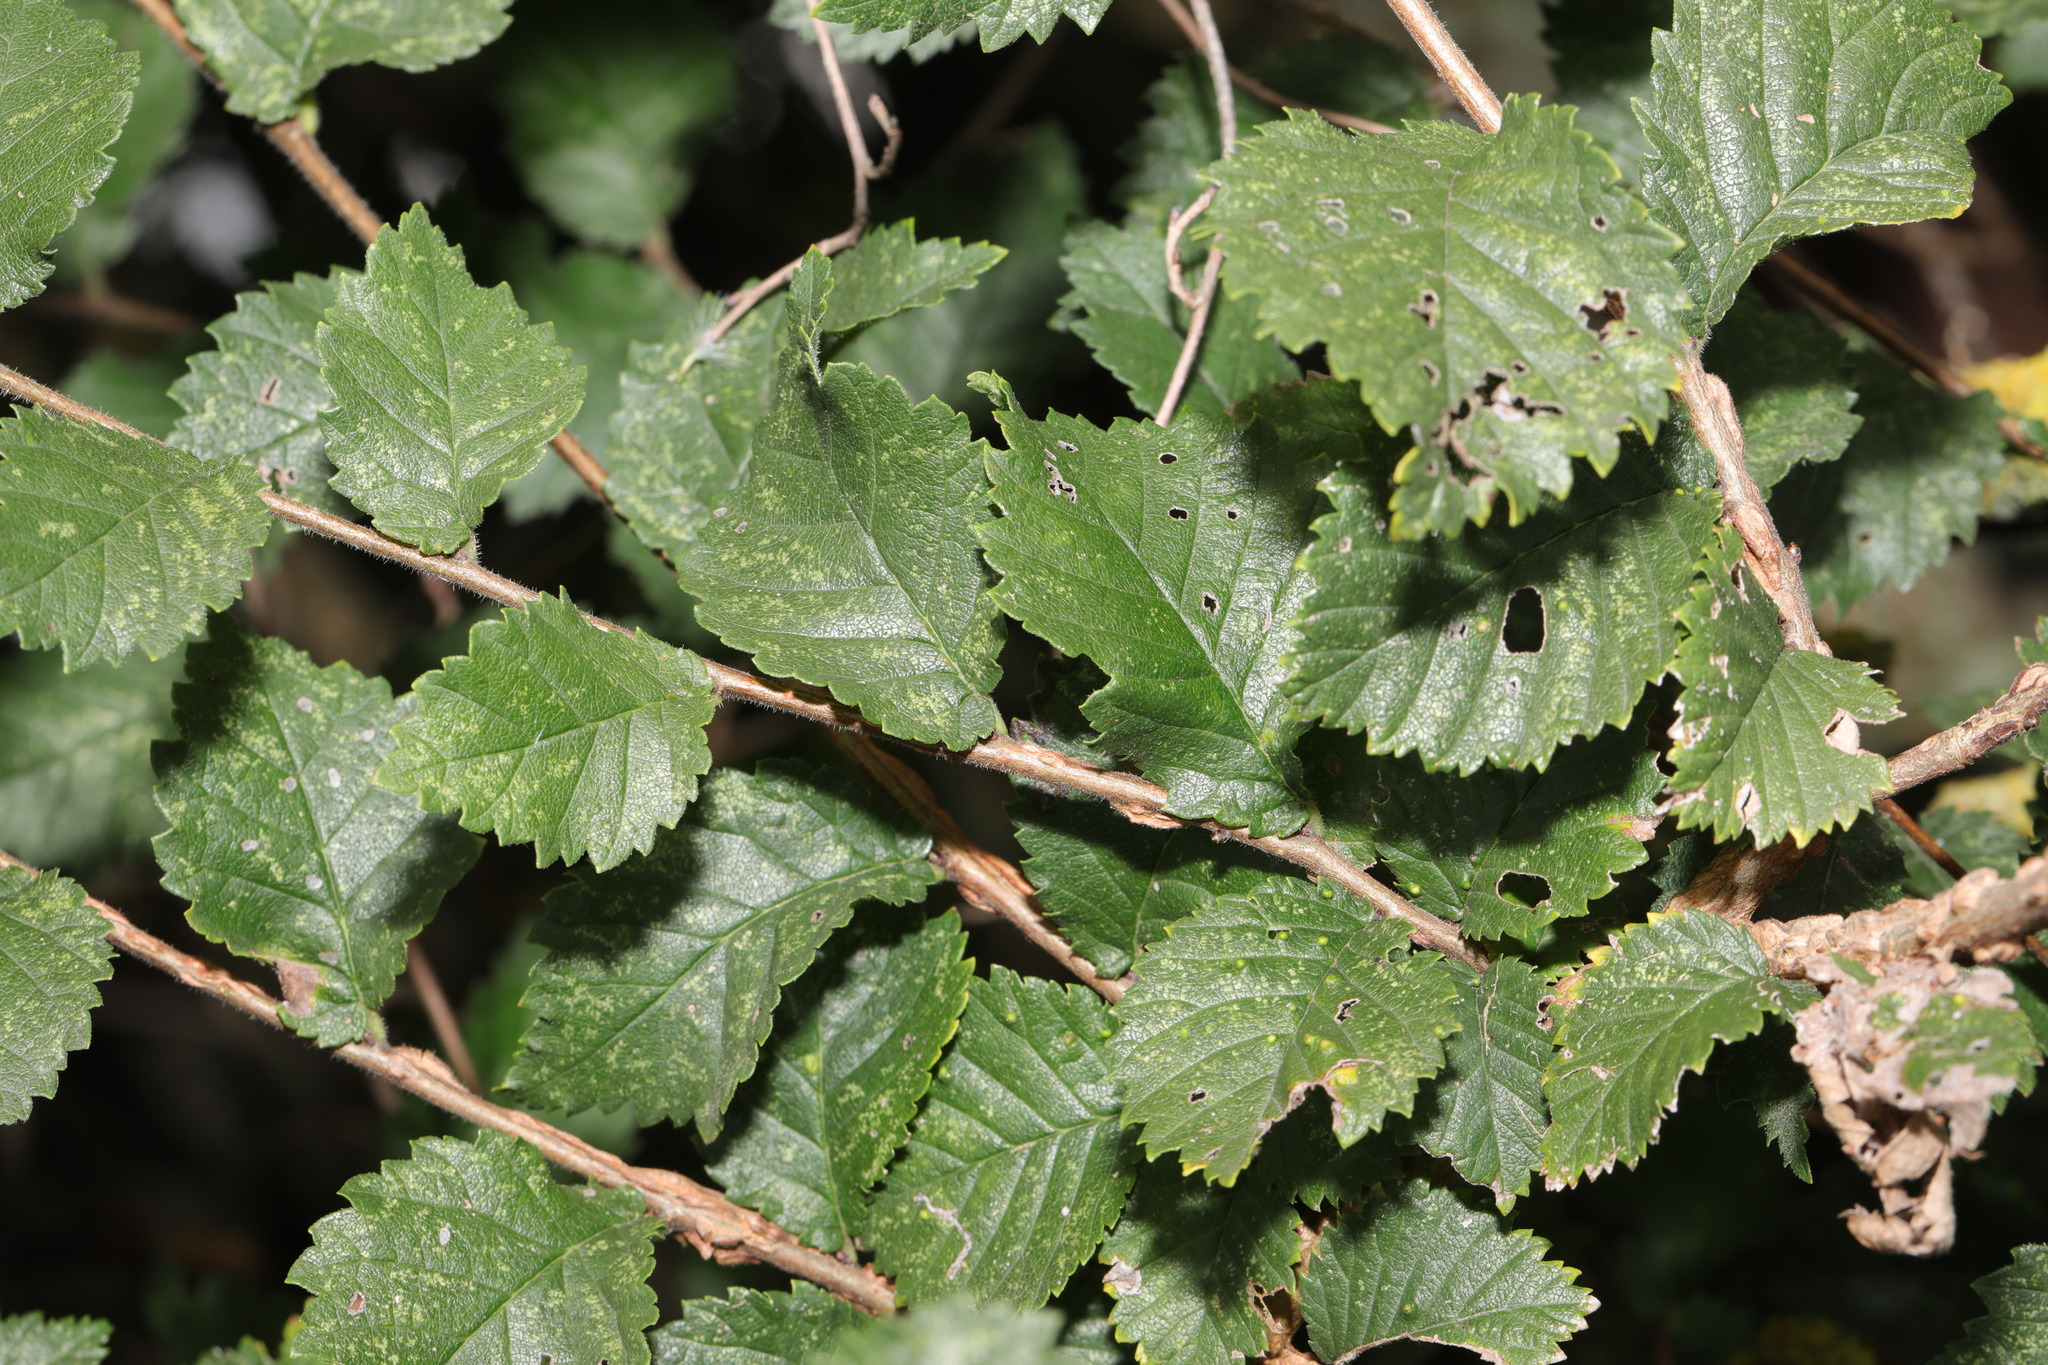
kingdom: Plantae
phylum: Tracheophyta
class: Magnoliopsida
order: Rosales
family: Ulmaceae
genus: Ulmus
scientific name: Ulmus minor
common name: Small-leaved elm
